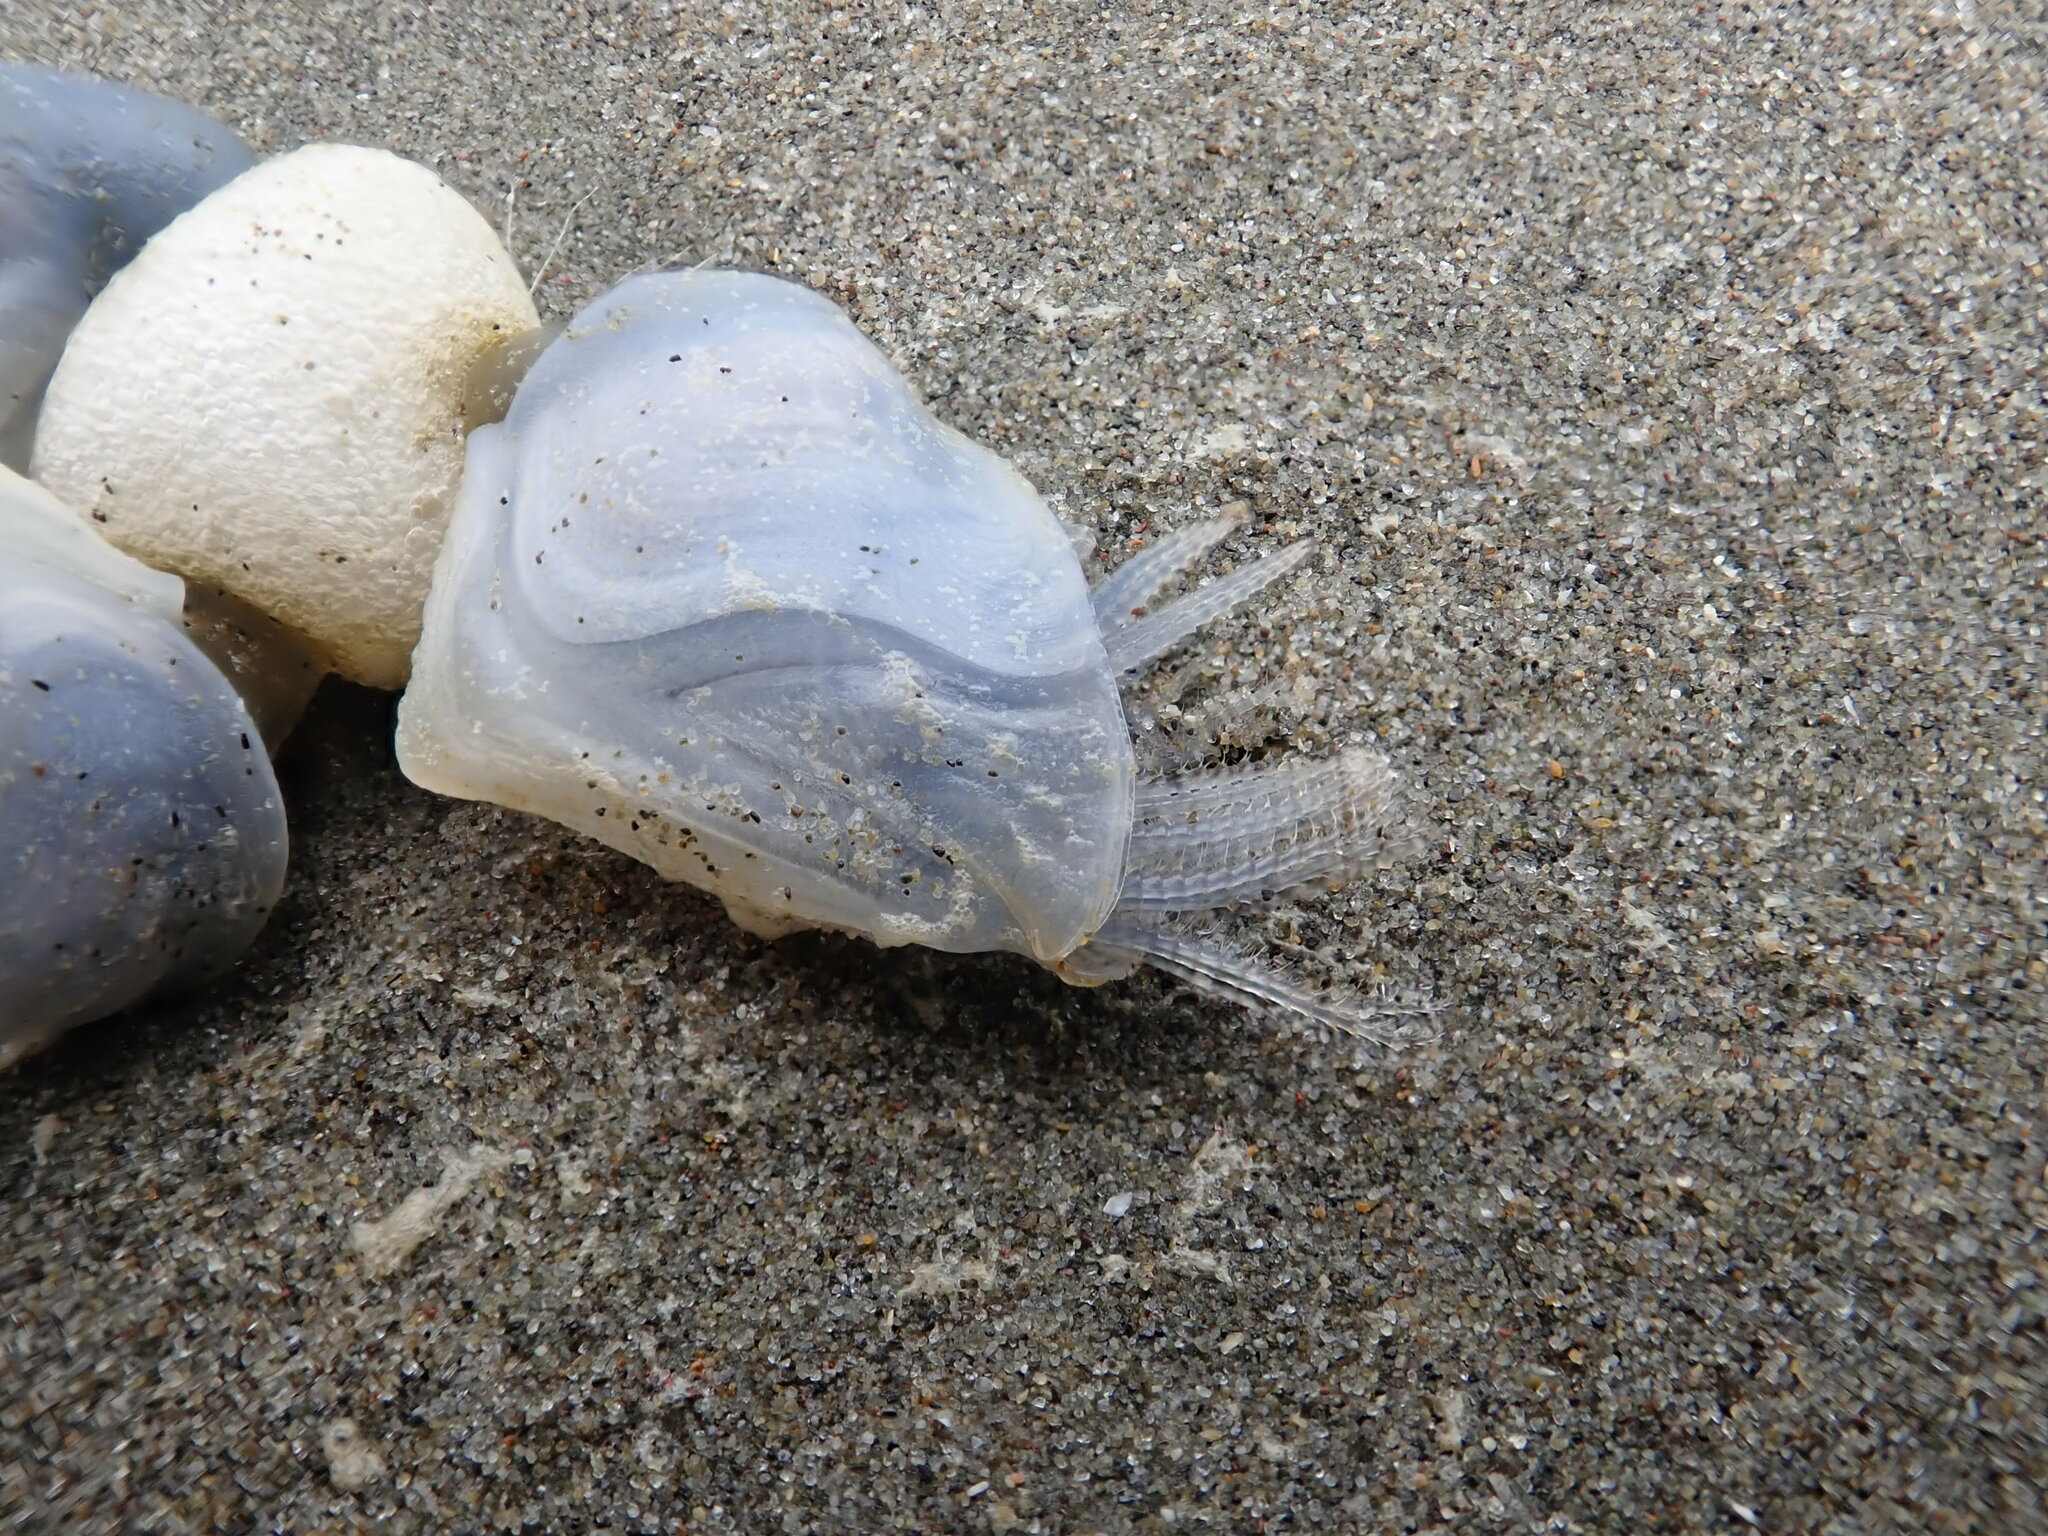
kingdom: Animalia
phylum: Arthropoda
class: Maxillopoda
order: Pedunculata
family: Lepadidae
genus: Dosima
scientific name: Dosima fascicularis
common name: Buoy barnacle
